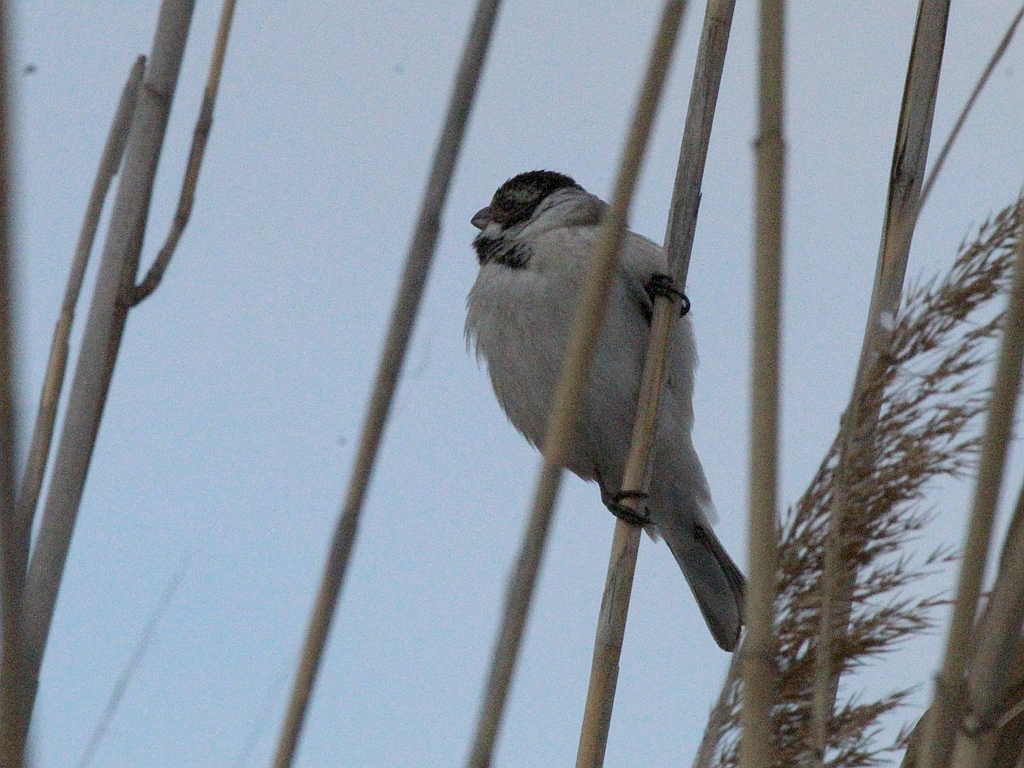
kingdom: Animalia
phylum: Chordata
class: Aves
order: Passeriformes
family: Emberizidae
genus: Emberiza
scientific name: Emberiza schoeniclus
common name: Reed bunting
